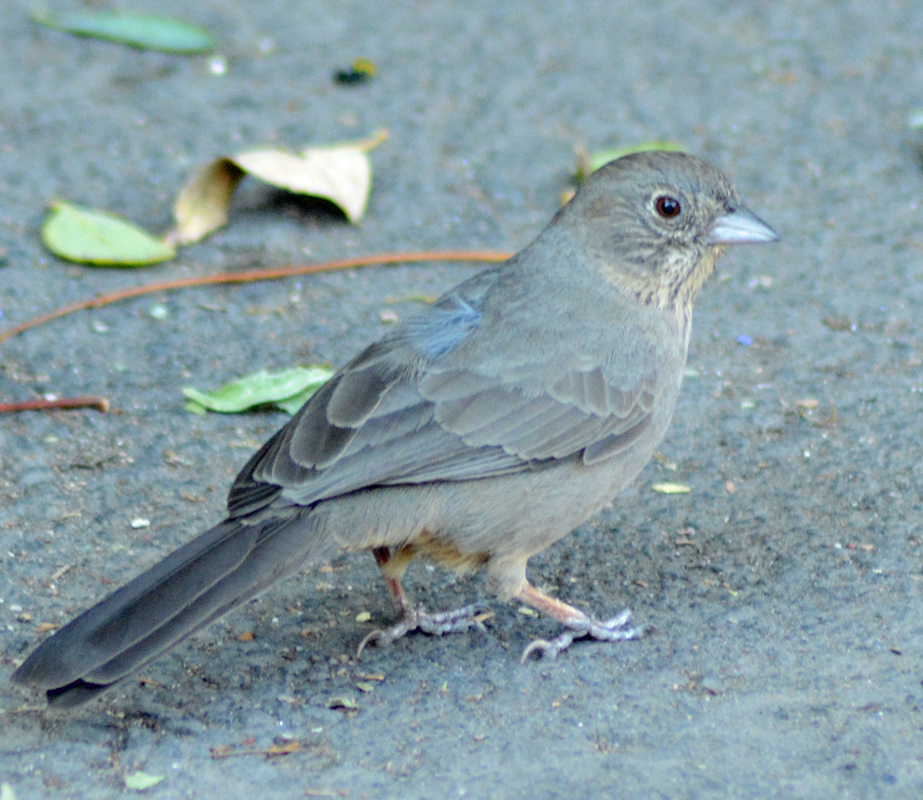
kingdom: Animalia
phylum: Chordata
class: Aves
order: Passeriformes
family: Passerellidae
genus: Melozone
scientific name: Melozone fusca
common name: Canyon towhee
